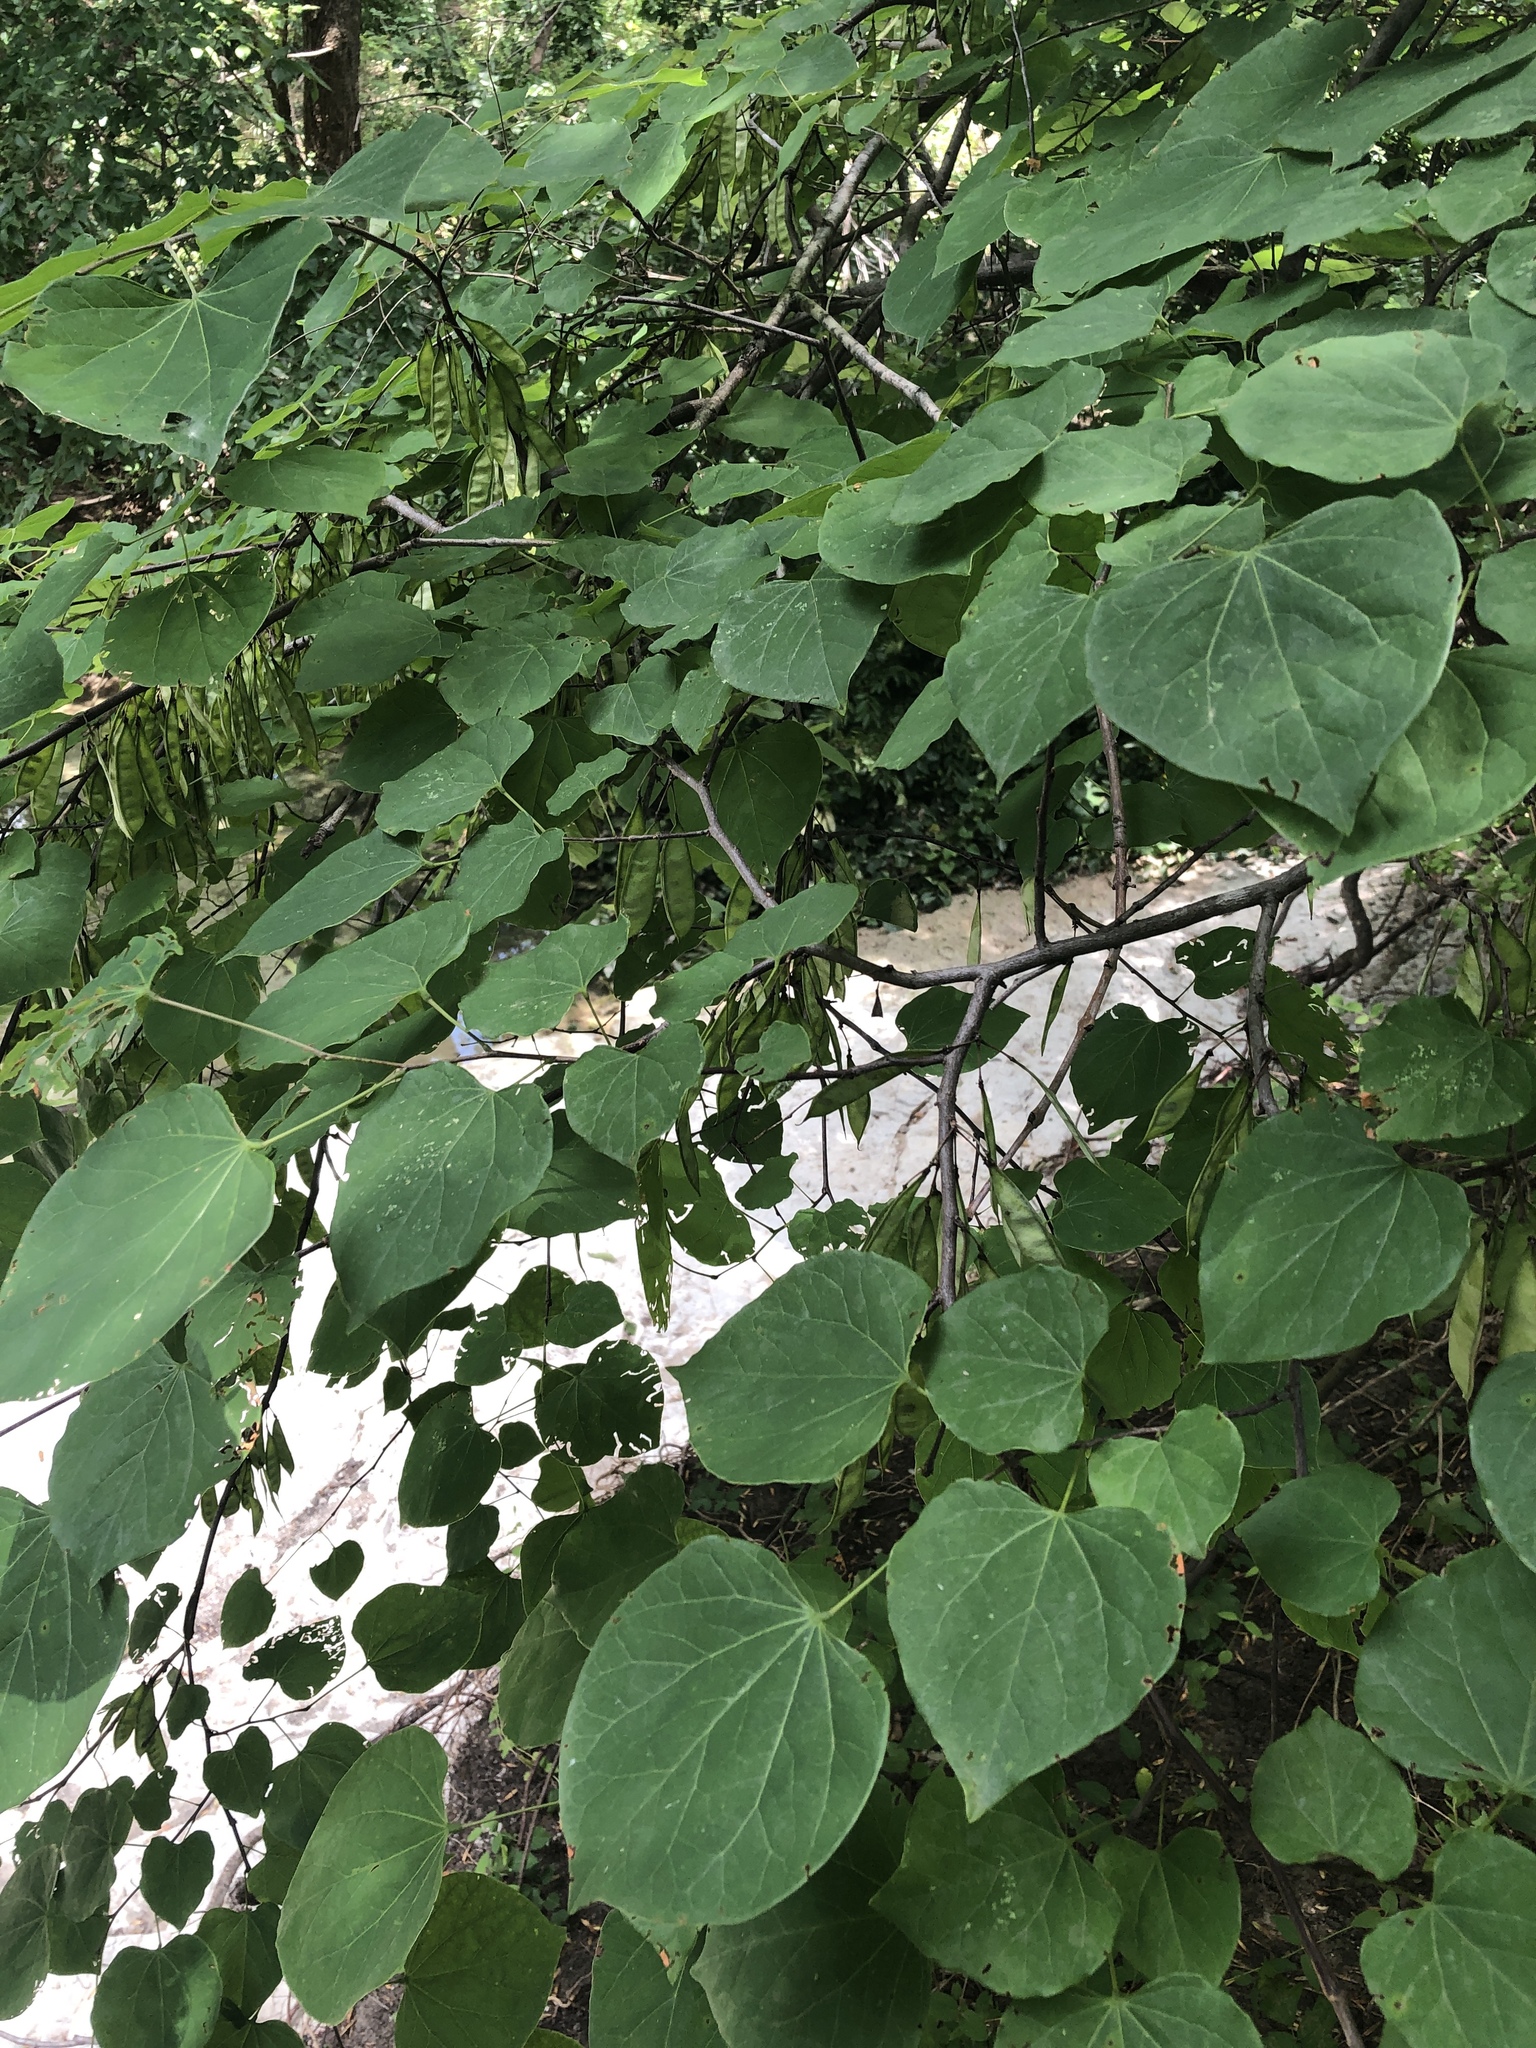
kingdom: Plantae
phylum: Tracheophyta
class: Magnoliopsida
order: Fabales
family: Fabaceae
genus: Cercis
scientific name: Cercis canadensis
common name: Eastern redbud
